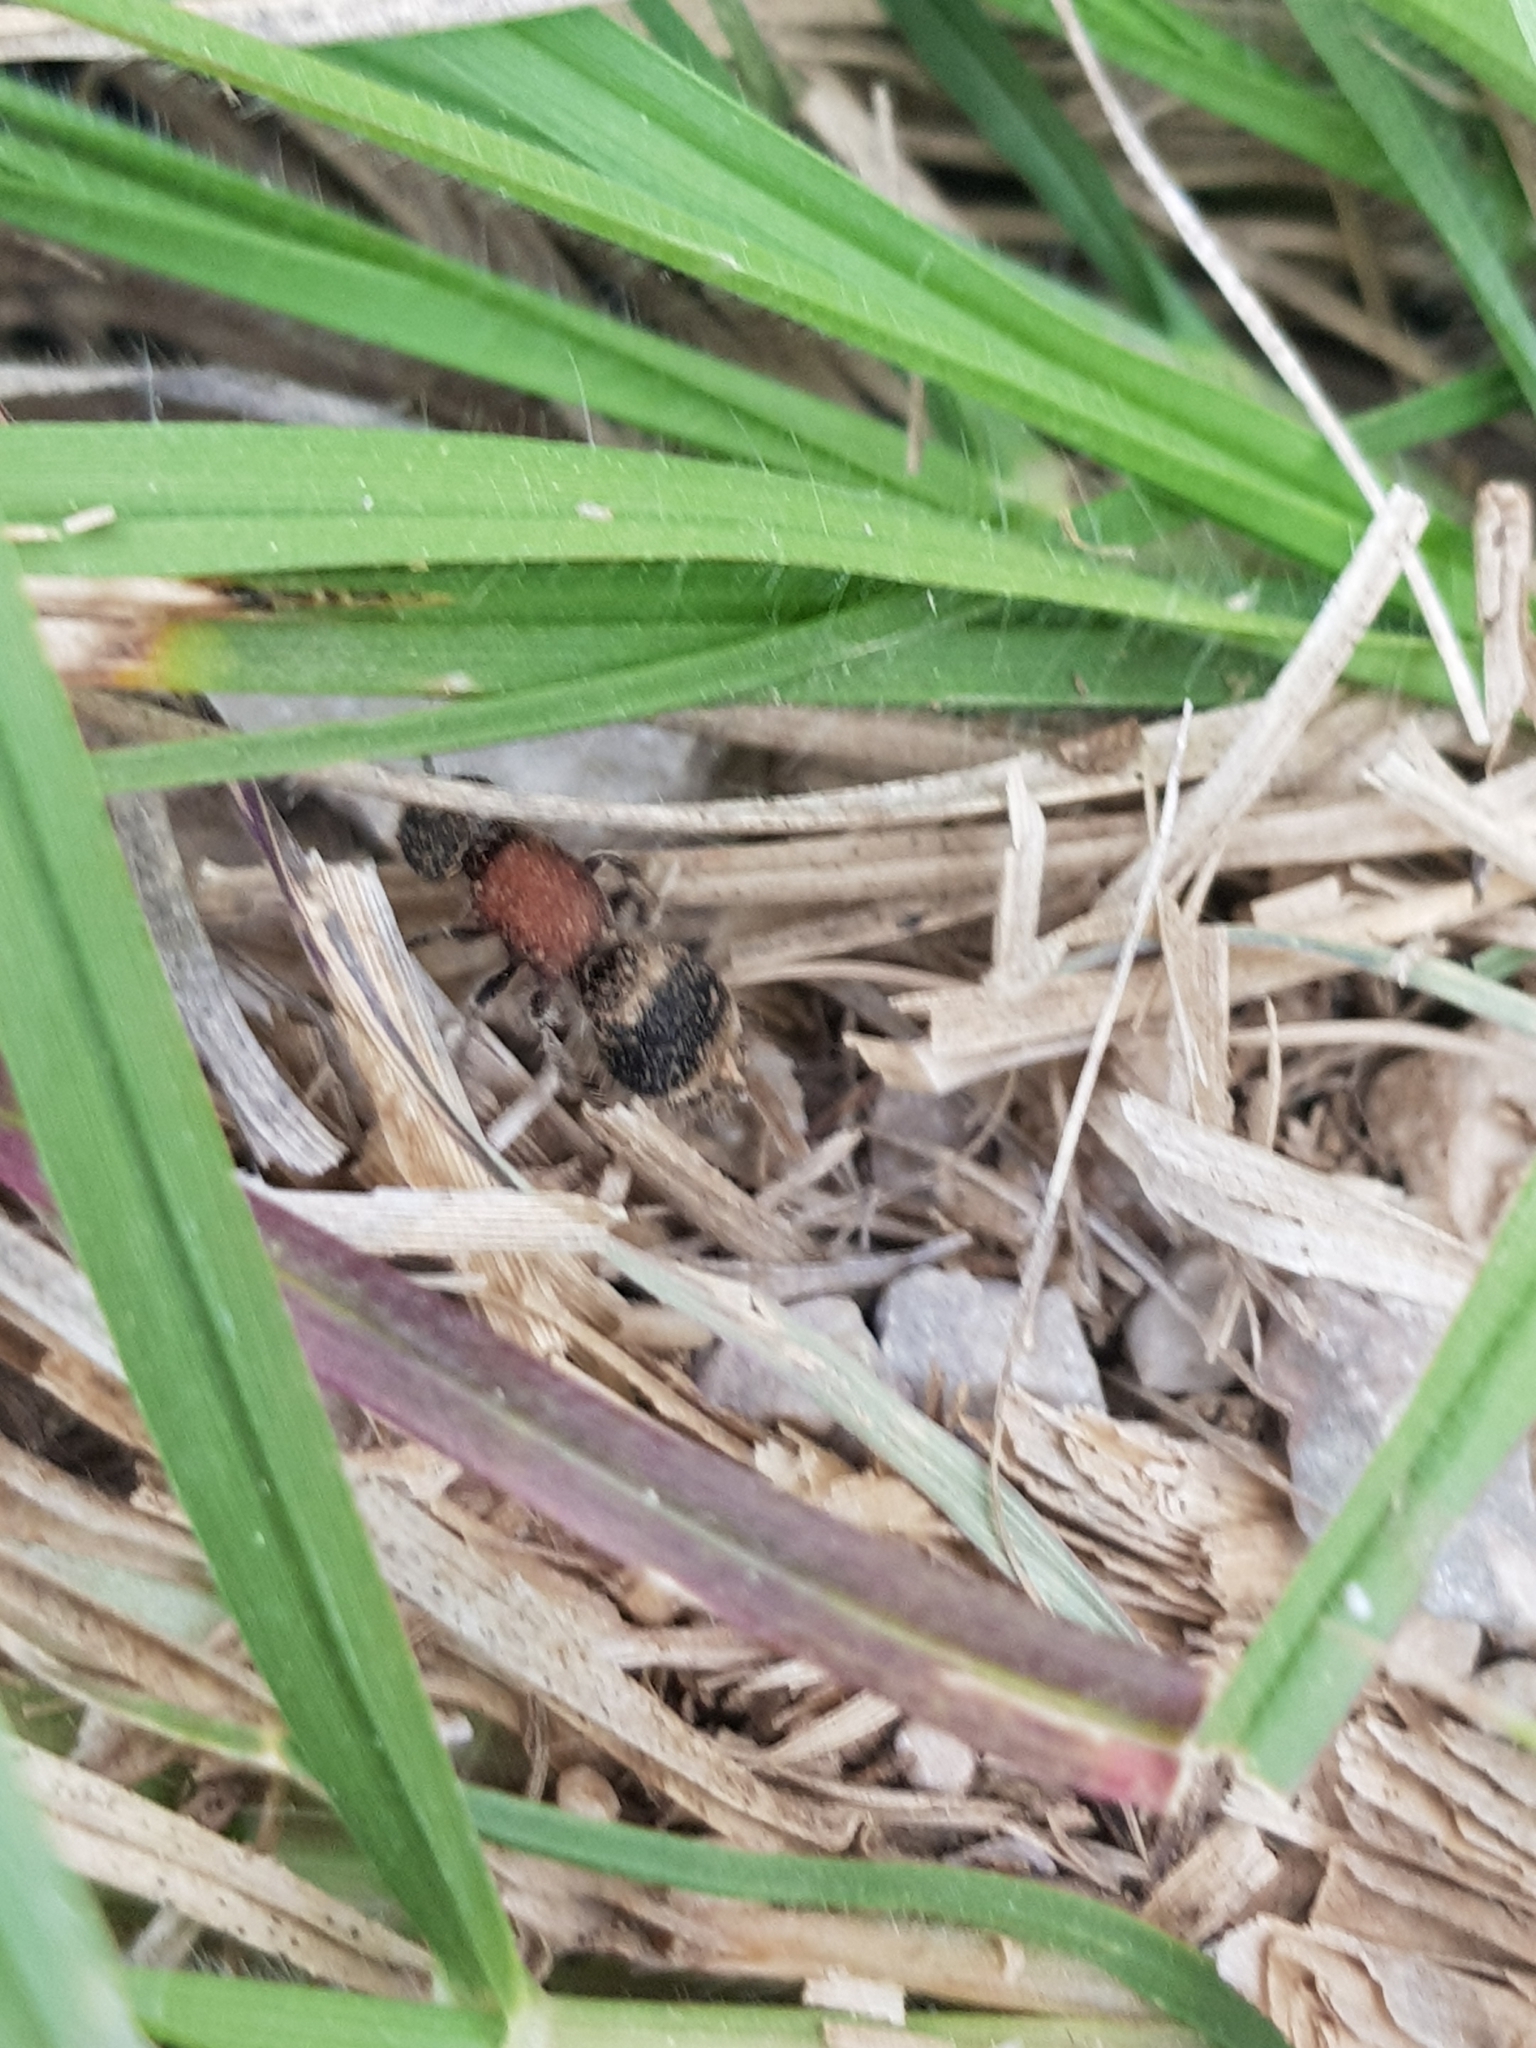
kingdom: Animalia
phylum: Arthropoda
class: Insecta
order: Hymenoptera
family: Mutillidae
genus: Tropidotilla
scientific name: Tropidotilla litoralis
